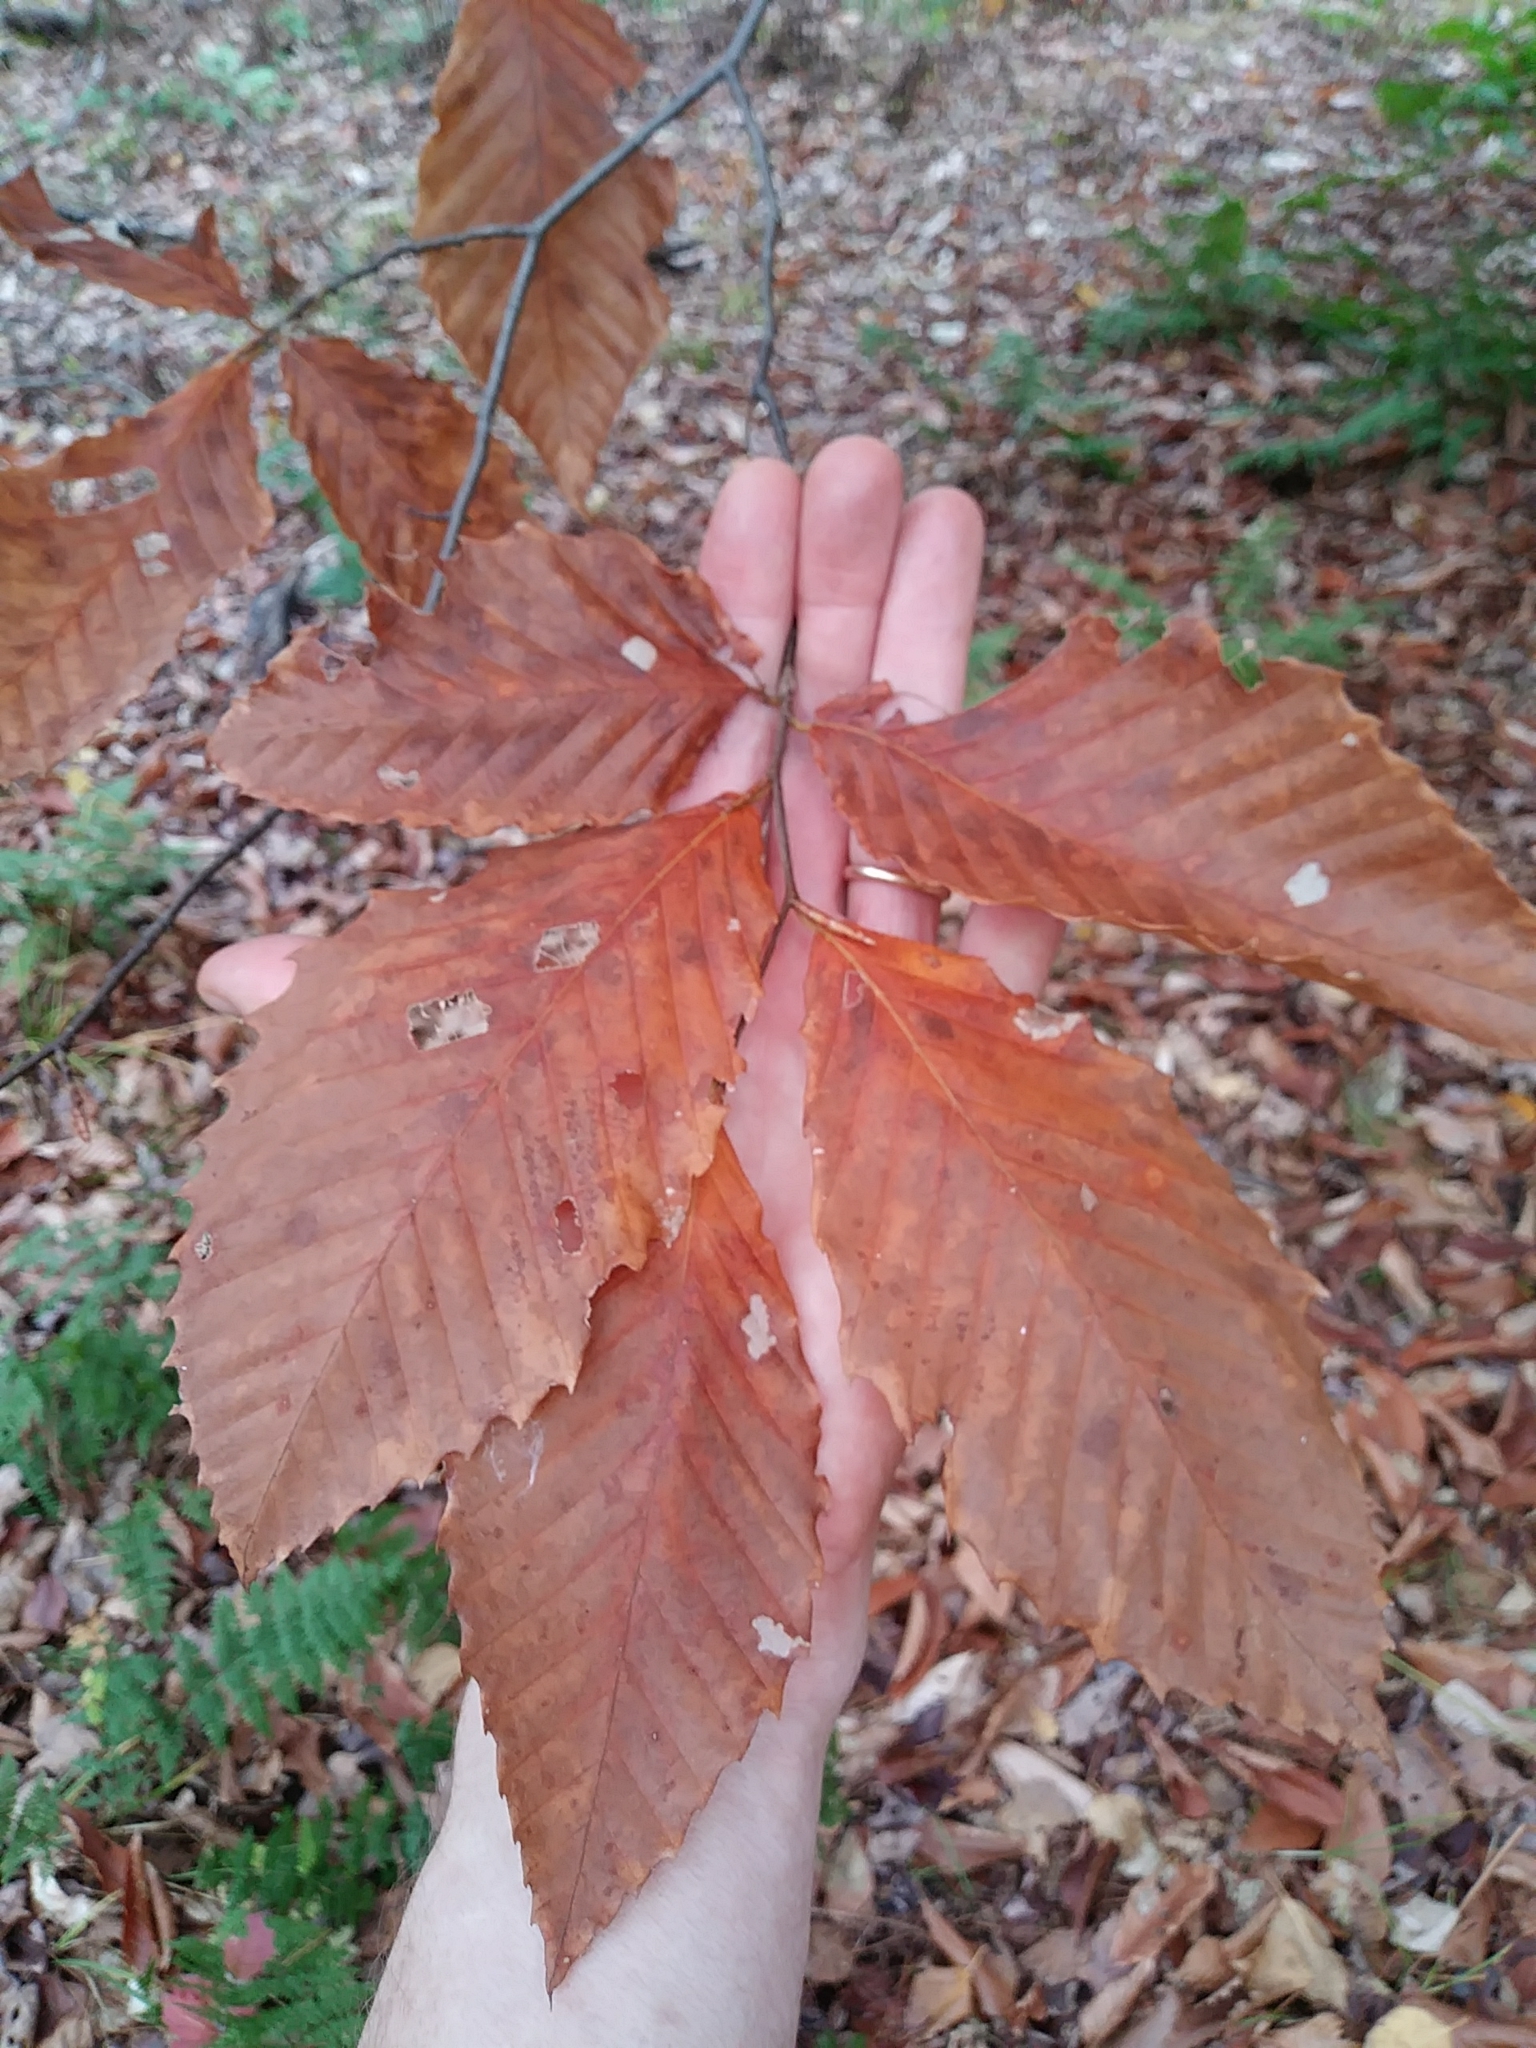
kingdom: Plantae
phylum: Tracheophyta
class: Magnoliopsida
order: Fagales
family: Fagaceae
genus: Fagus
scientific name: Fagus grandifolia
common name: American beech
